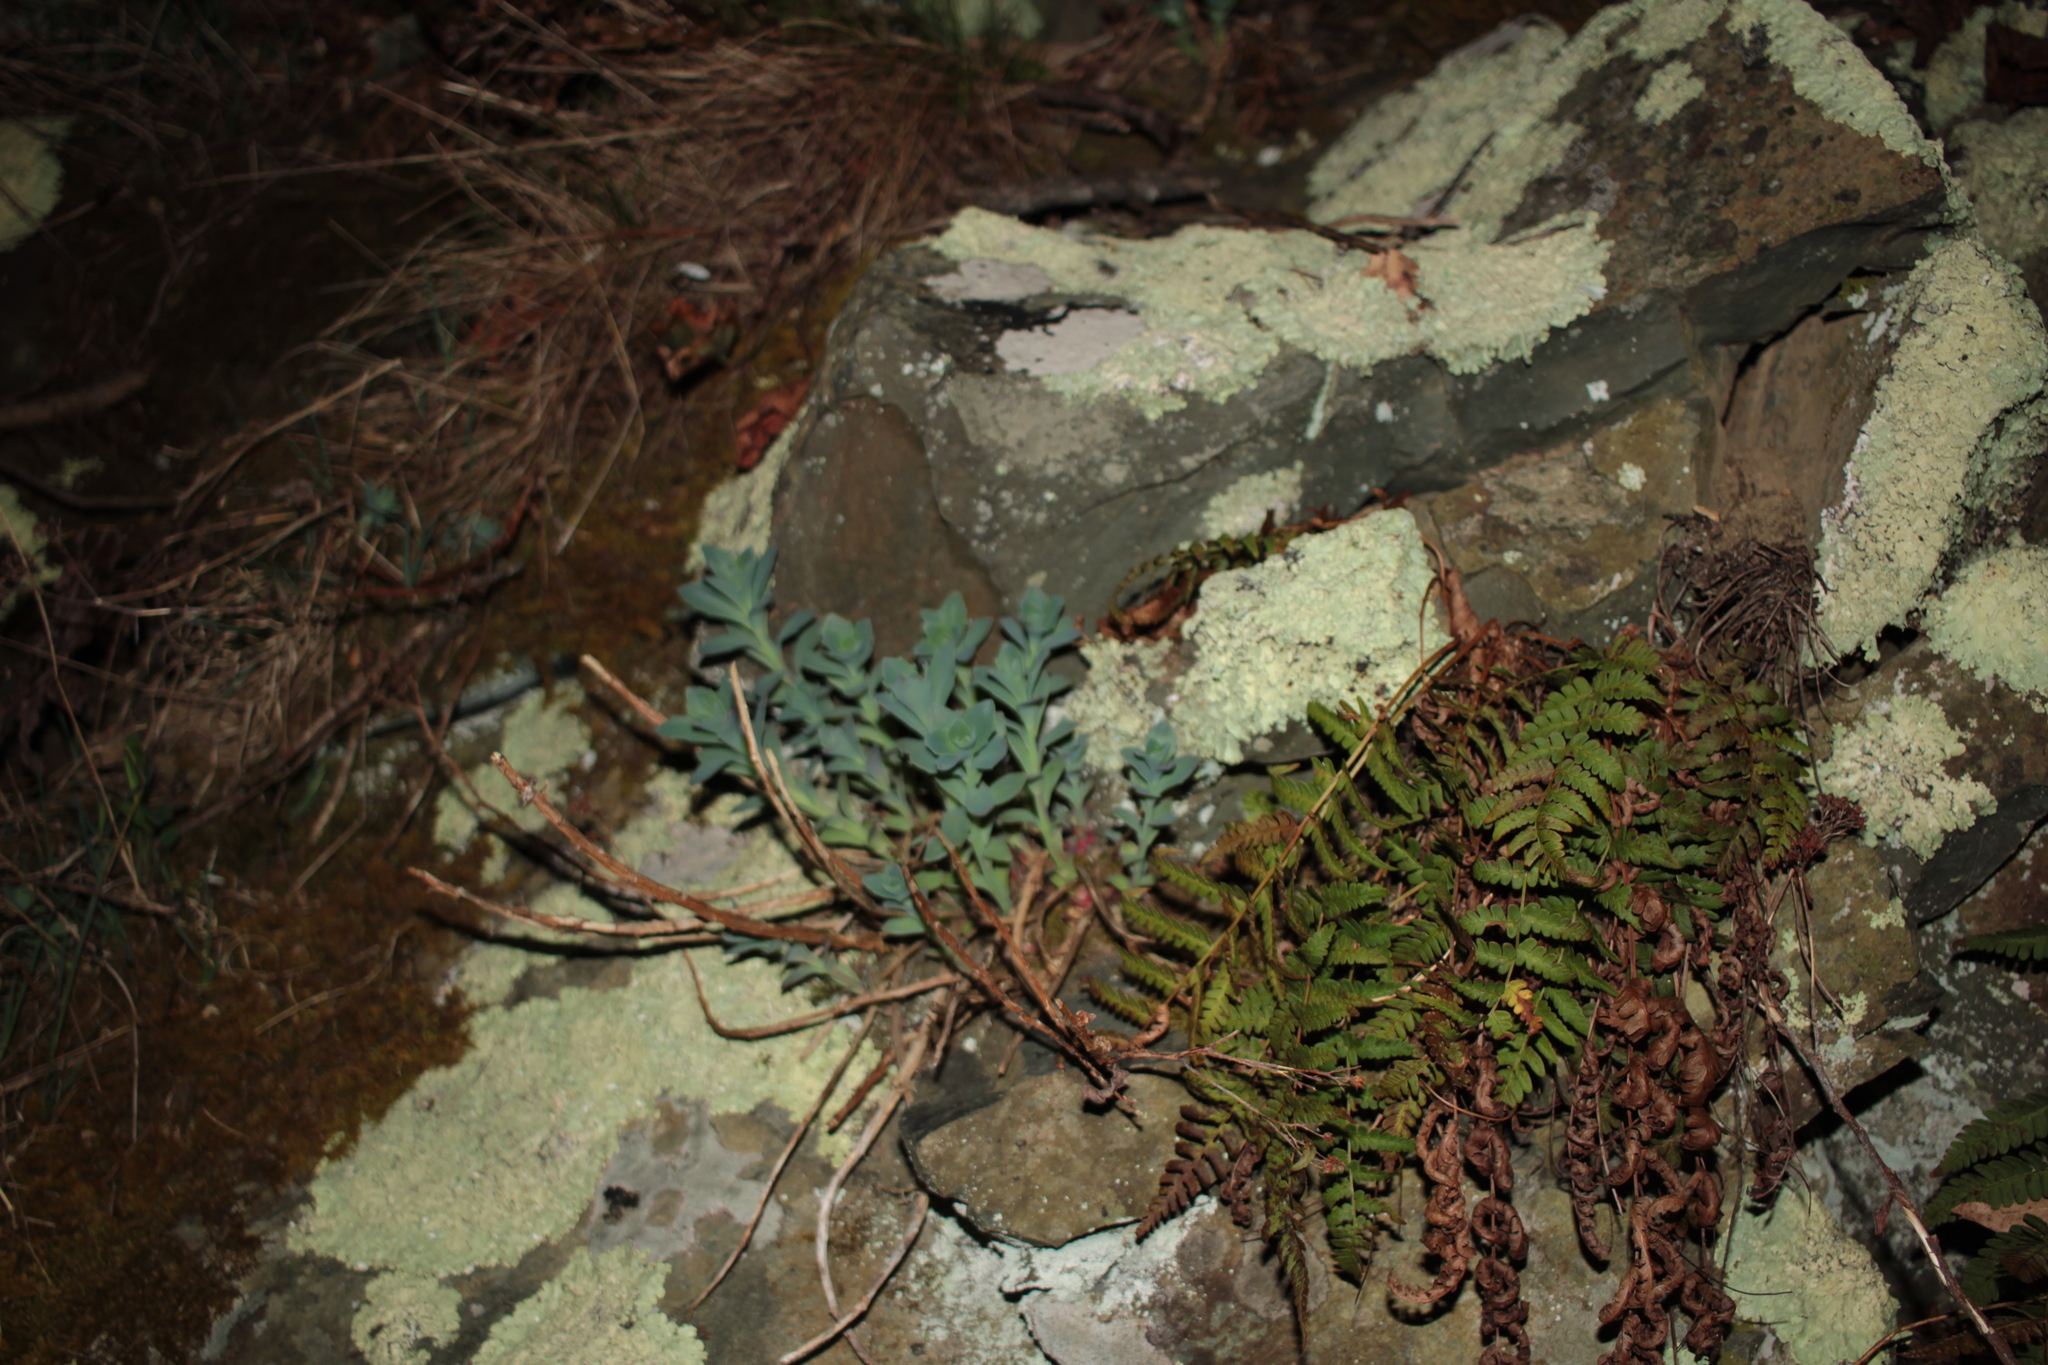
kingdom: Plantae
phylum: Tracheophyta
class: Magnoliopsida
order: Saxifragales
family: Crassulaceae
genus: Hylotelephium
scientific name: Hylotelephium telephioides
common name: Allegheny stonecrop
